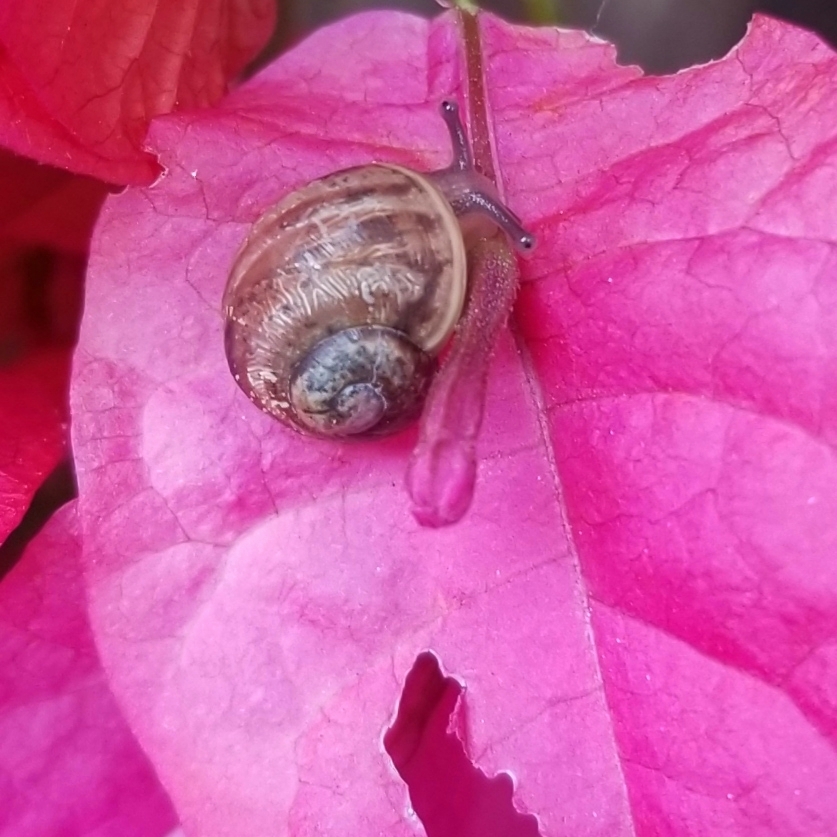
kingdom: Animalia
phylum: Mollusca
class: Gastropoda
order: Stylommatophora
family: Helicidae
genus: Cornu
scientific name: Cornu aspersum
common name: Brown garden snail
